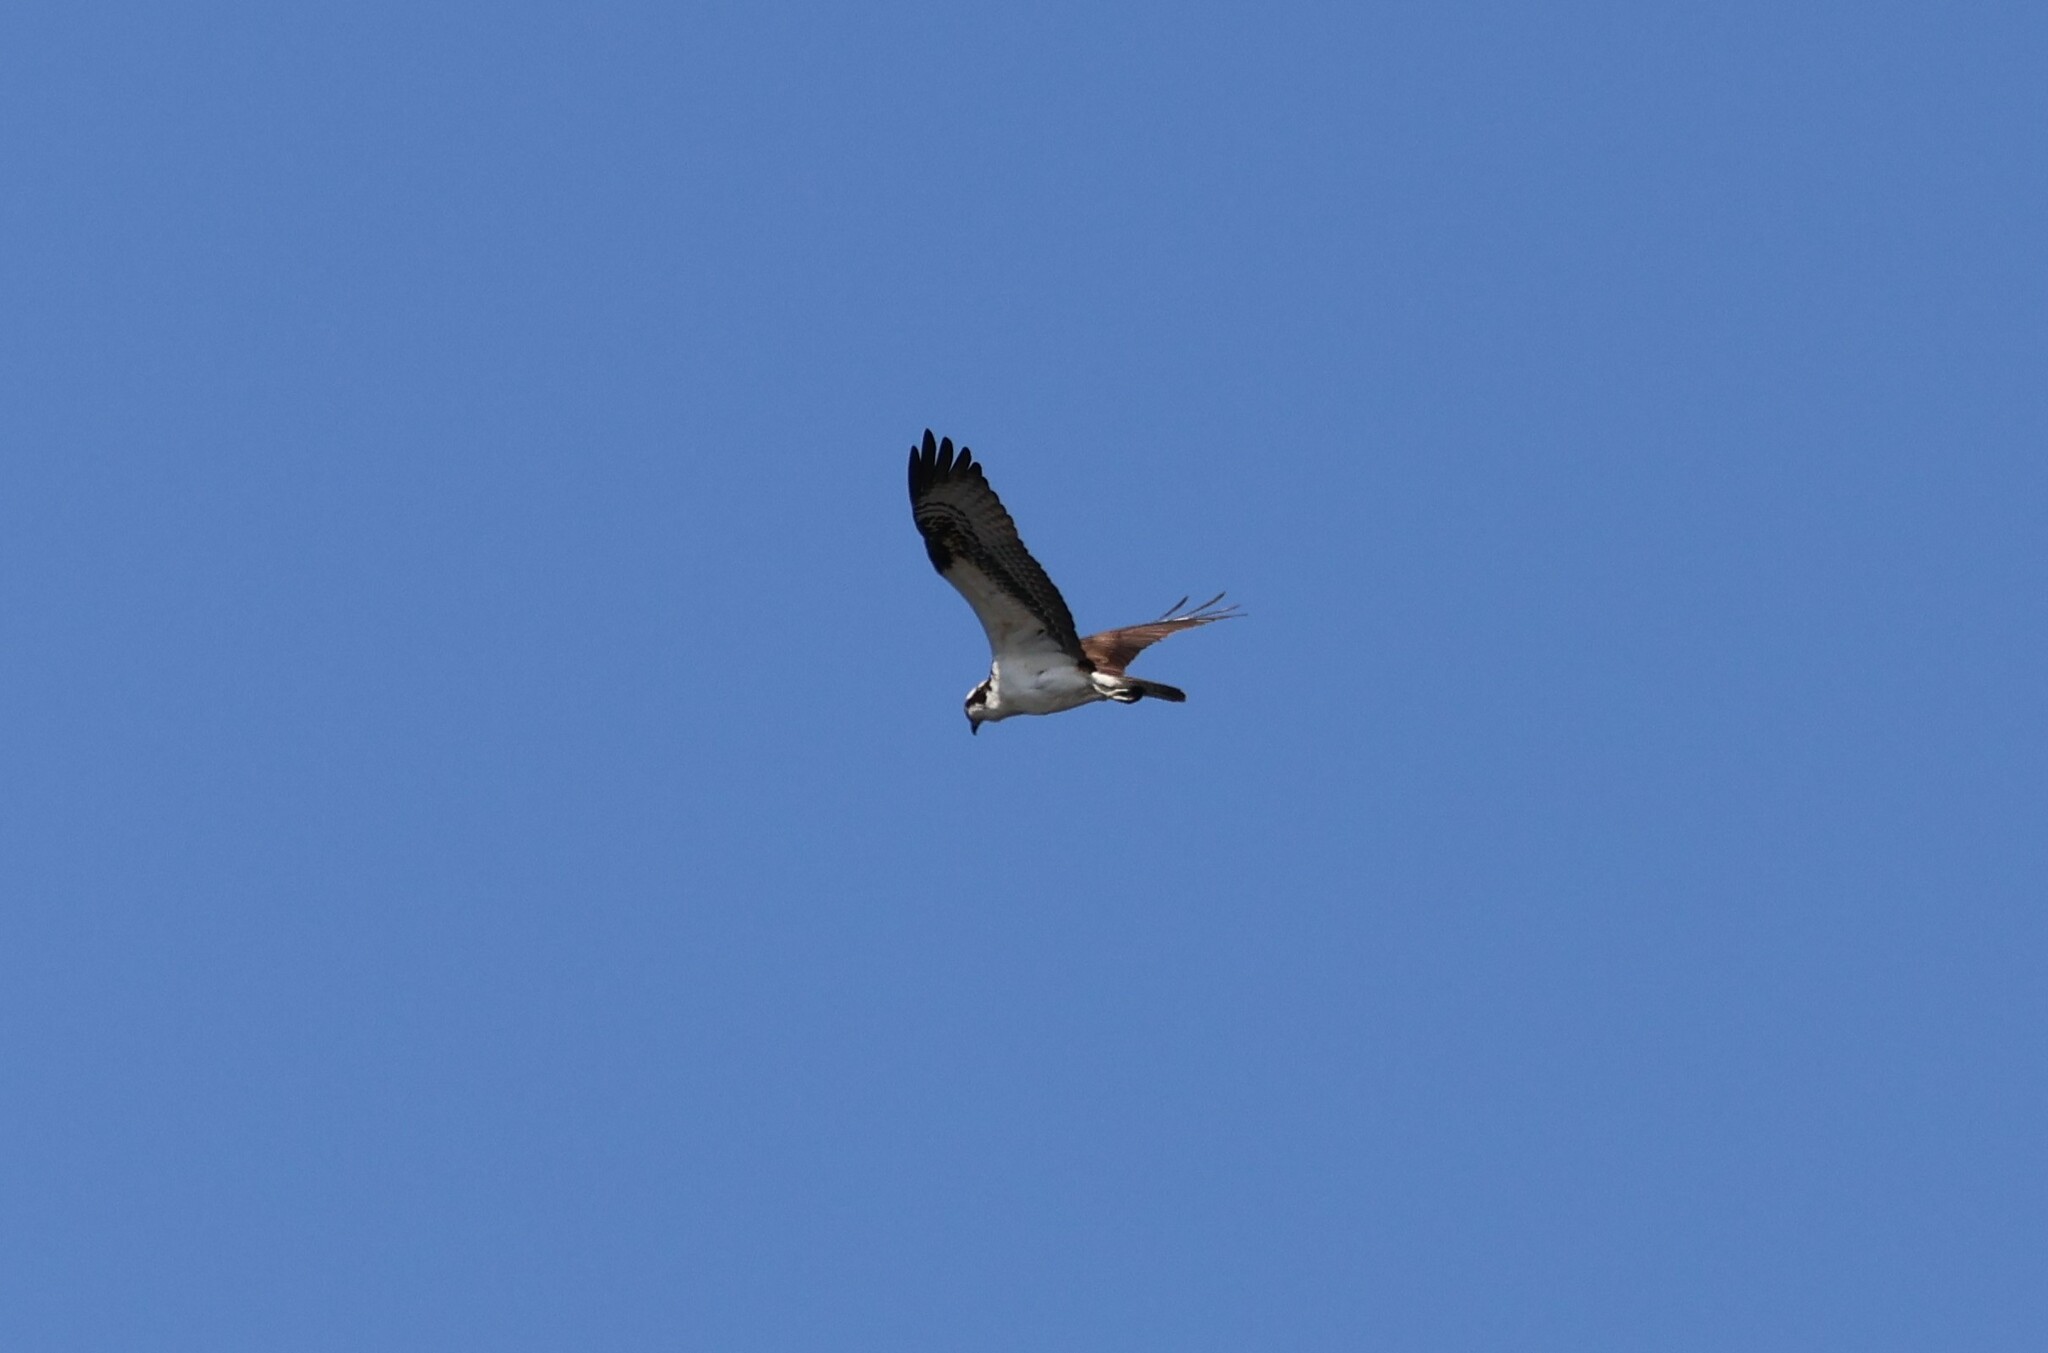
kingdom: Animalia
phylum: Chordata
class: Aves
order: Accipitriformes
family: Pandionidae
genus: Pandion
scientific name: Pandion haliaetus
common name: Osprey
